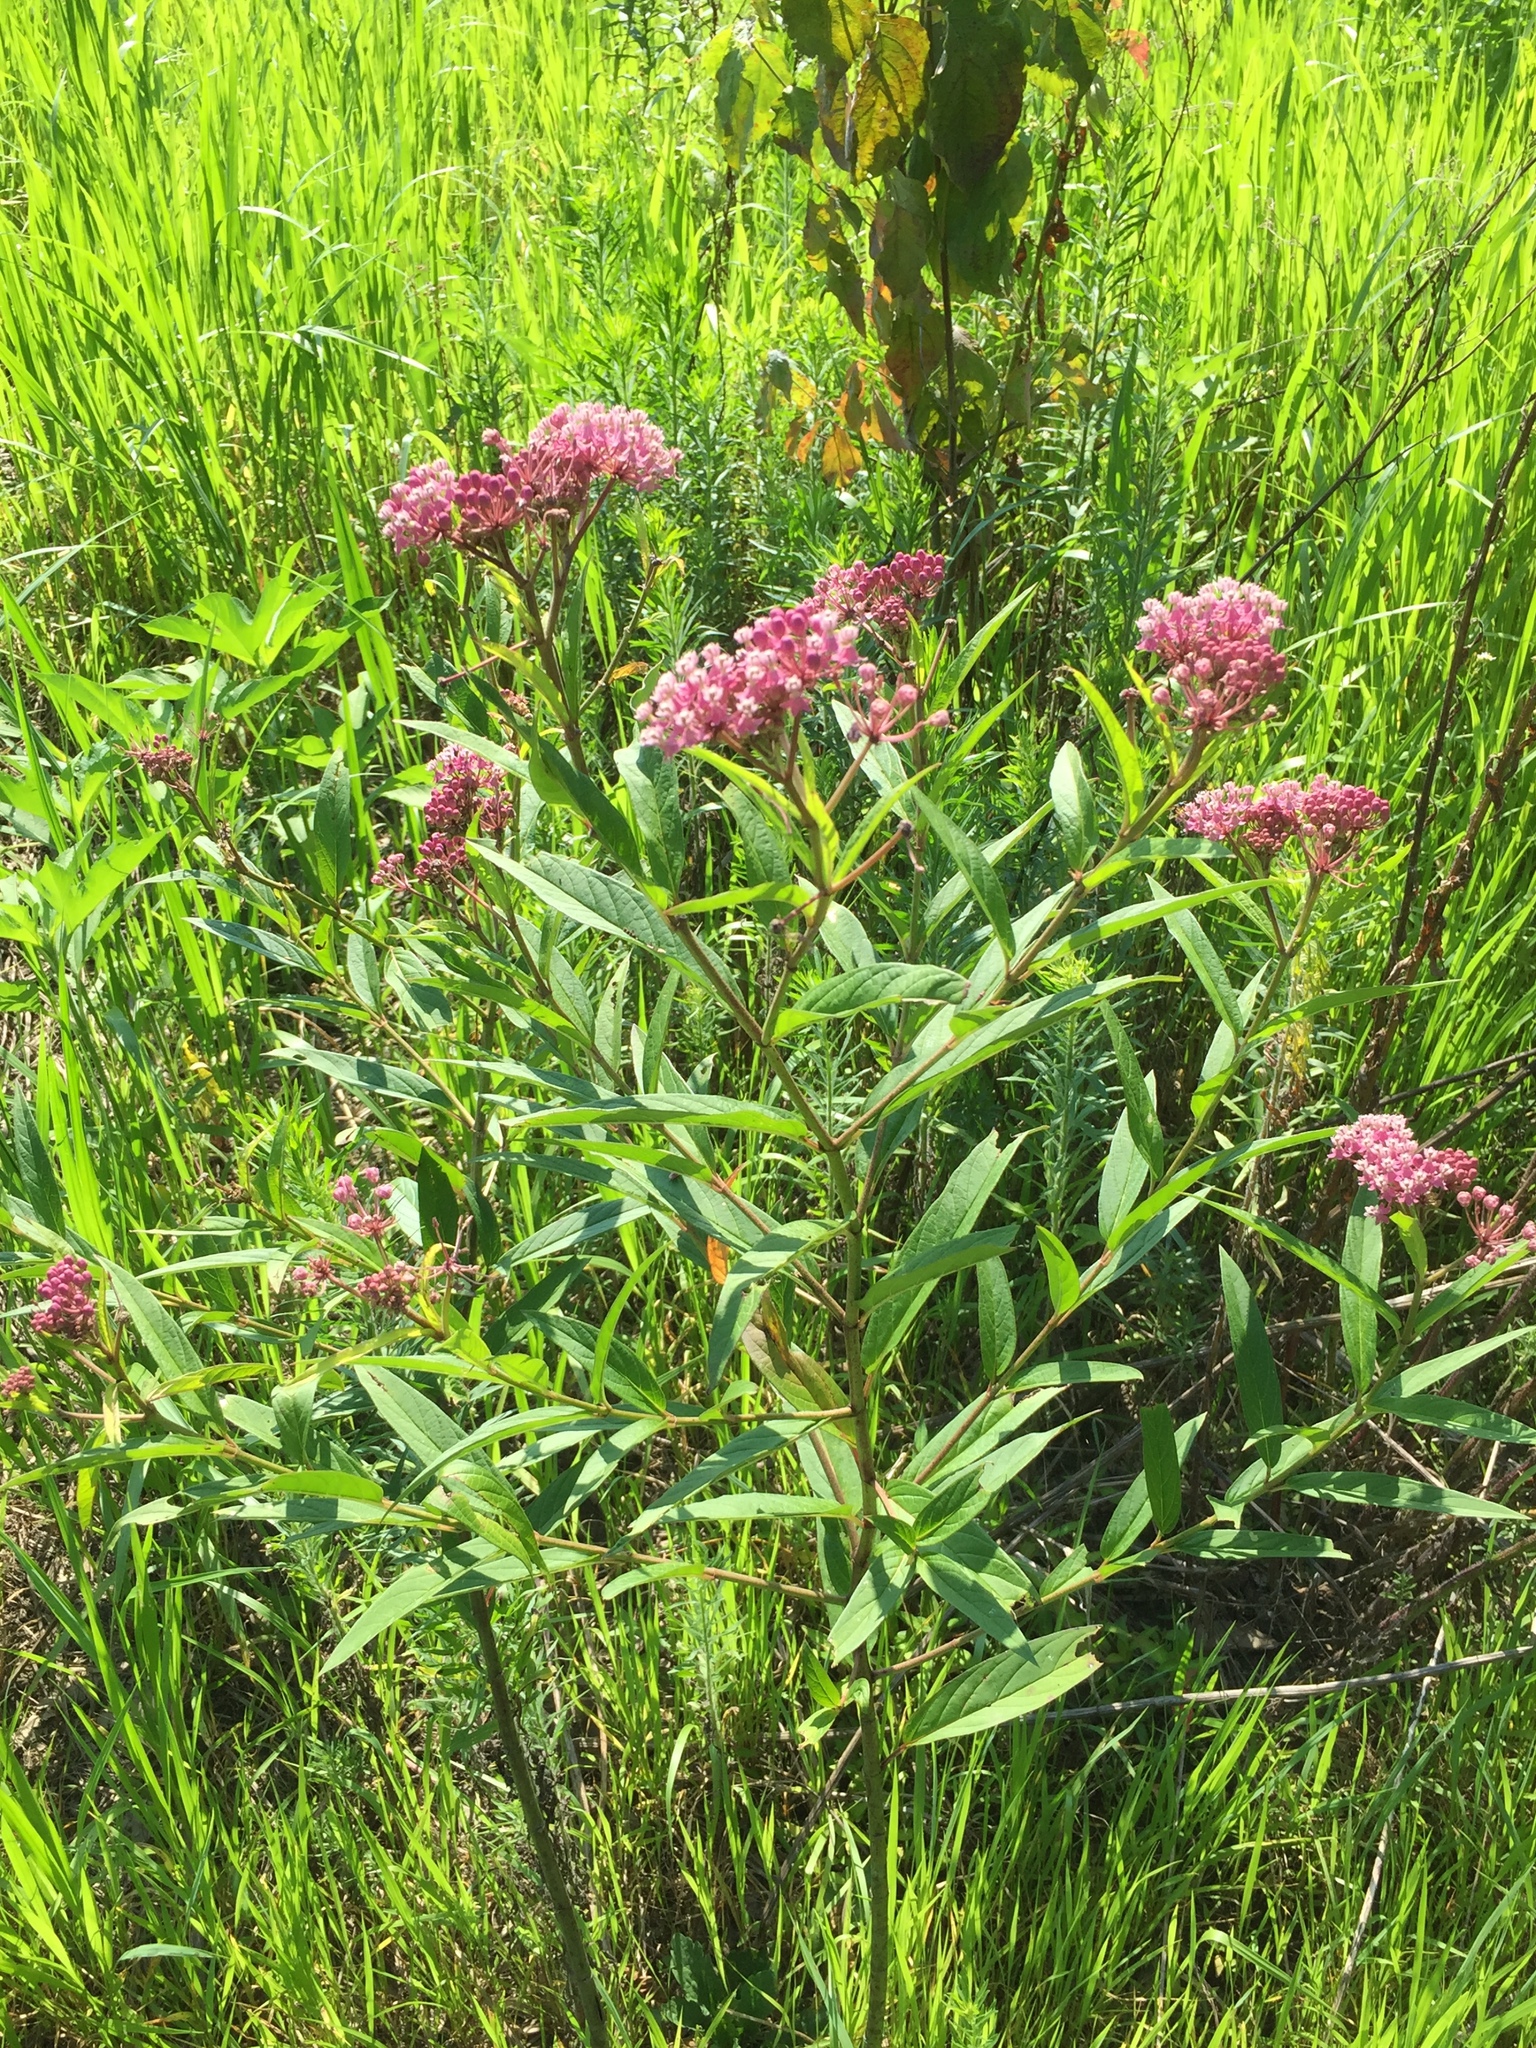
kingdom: Plantae
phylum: Tracheophyta
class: Magnoliopsida
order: Gentianales
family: Apocynaceae
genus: Asclepias
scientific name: Asclepias incarnata
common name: Swamp milkweed
